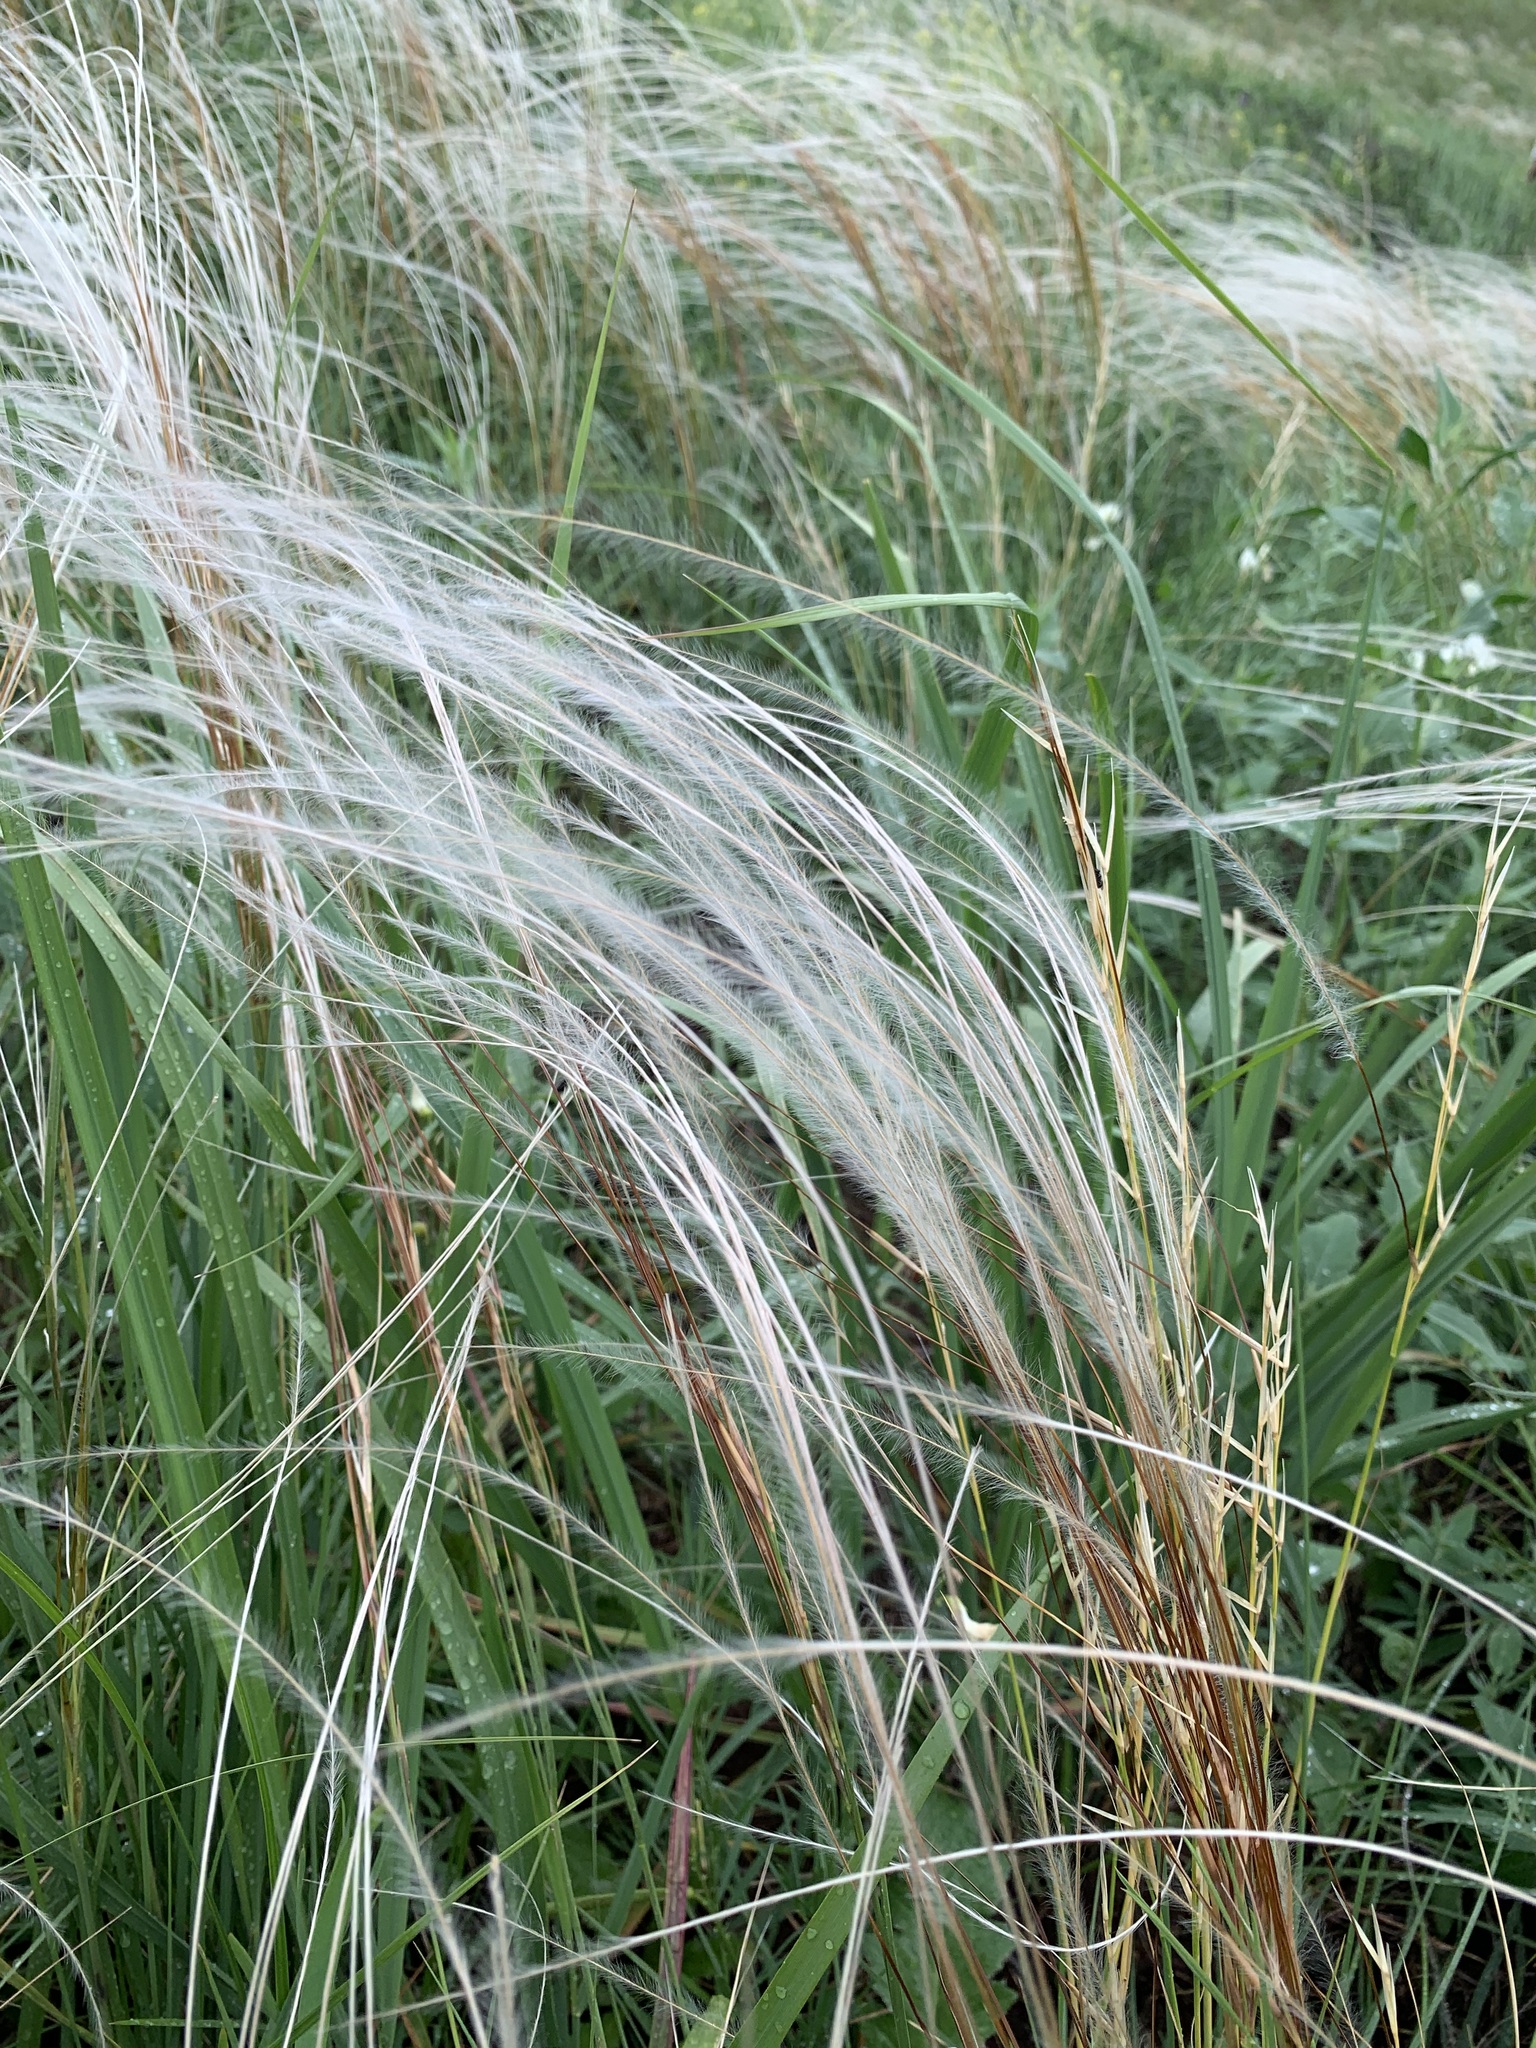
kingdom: Plantae
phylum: Tracheophyta
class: Liliopsida
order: Poales
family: Poaceae
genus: Stipa
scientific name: Stipa pennata
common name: European feather grass
